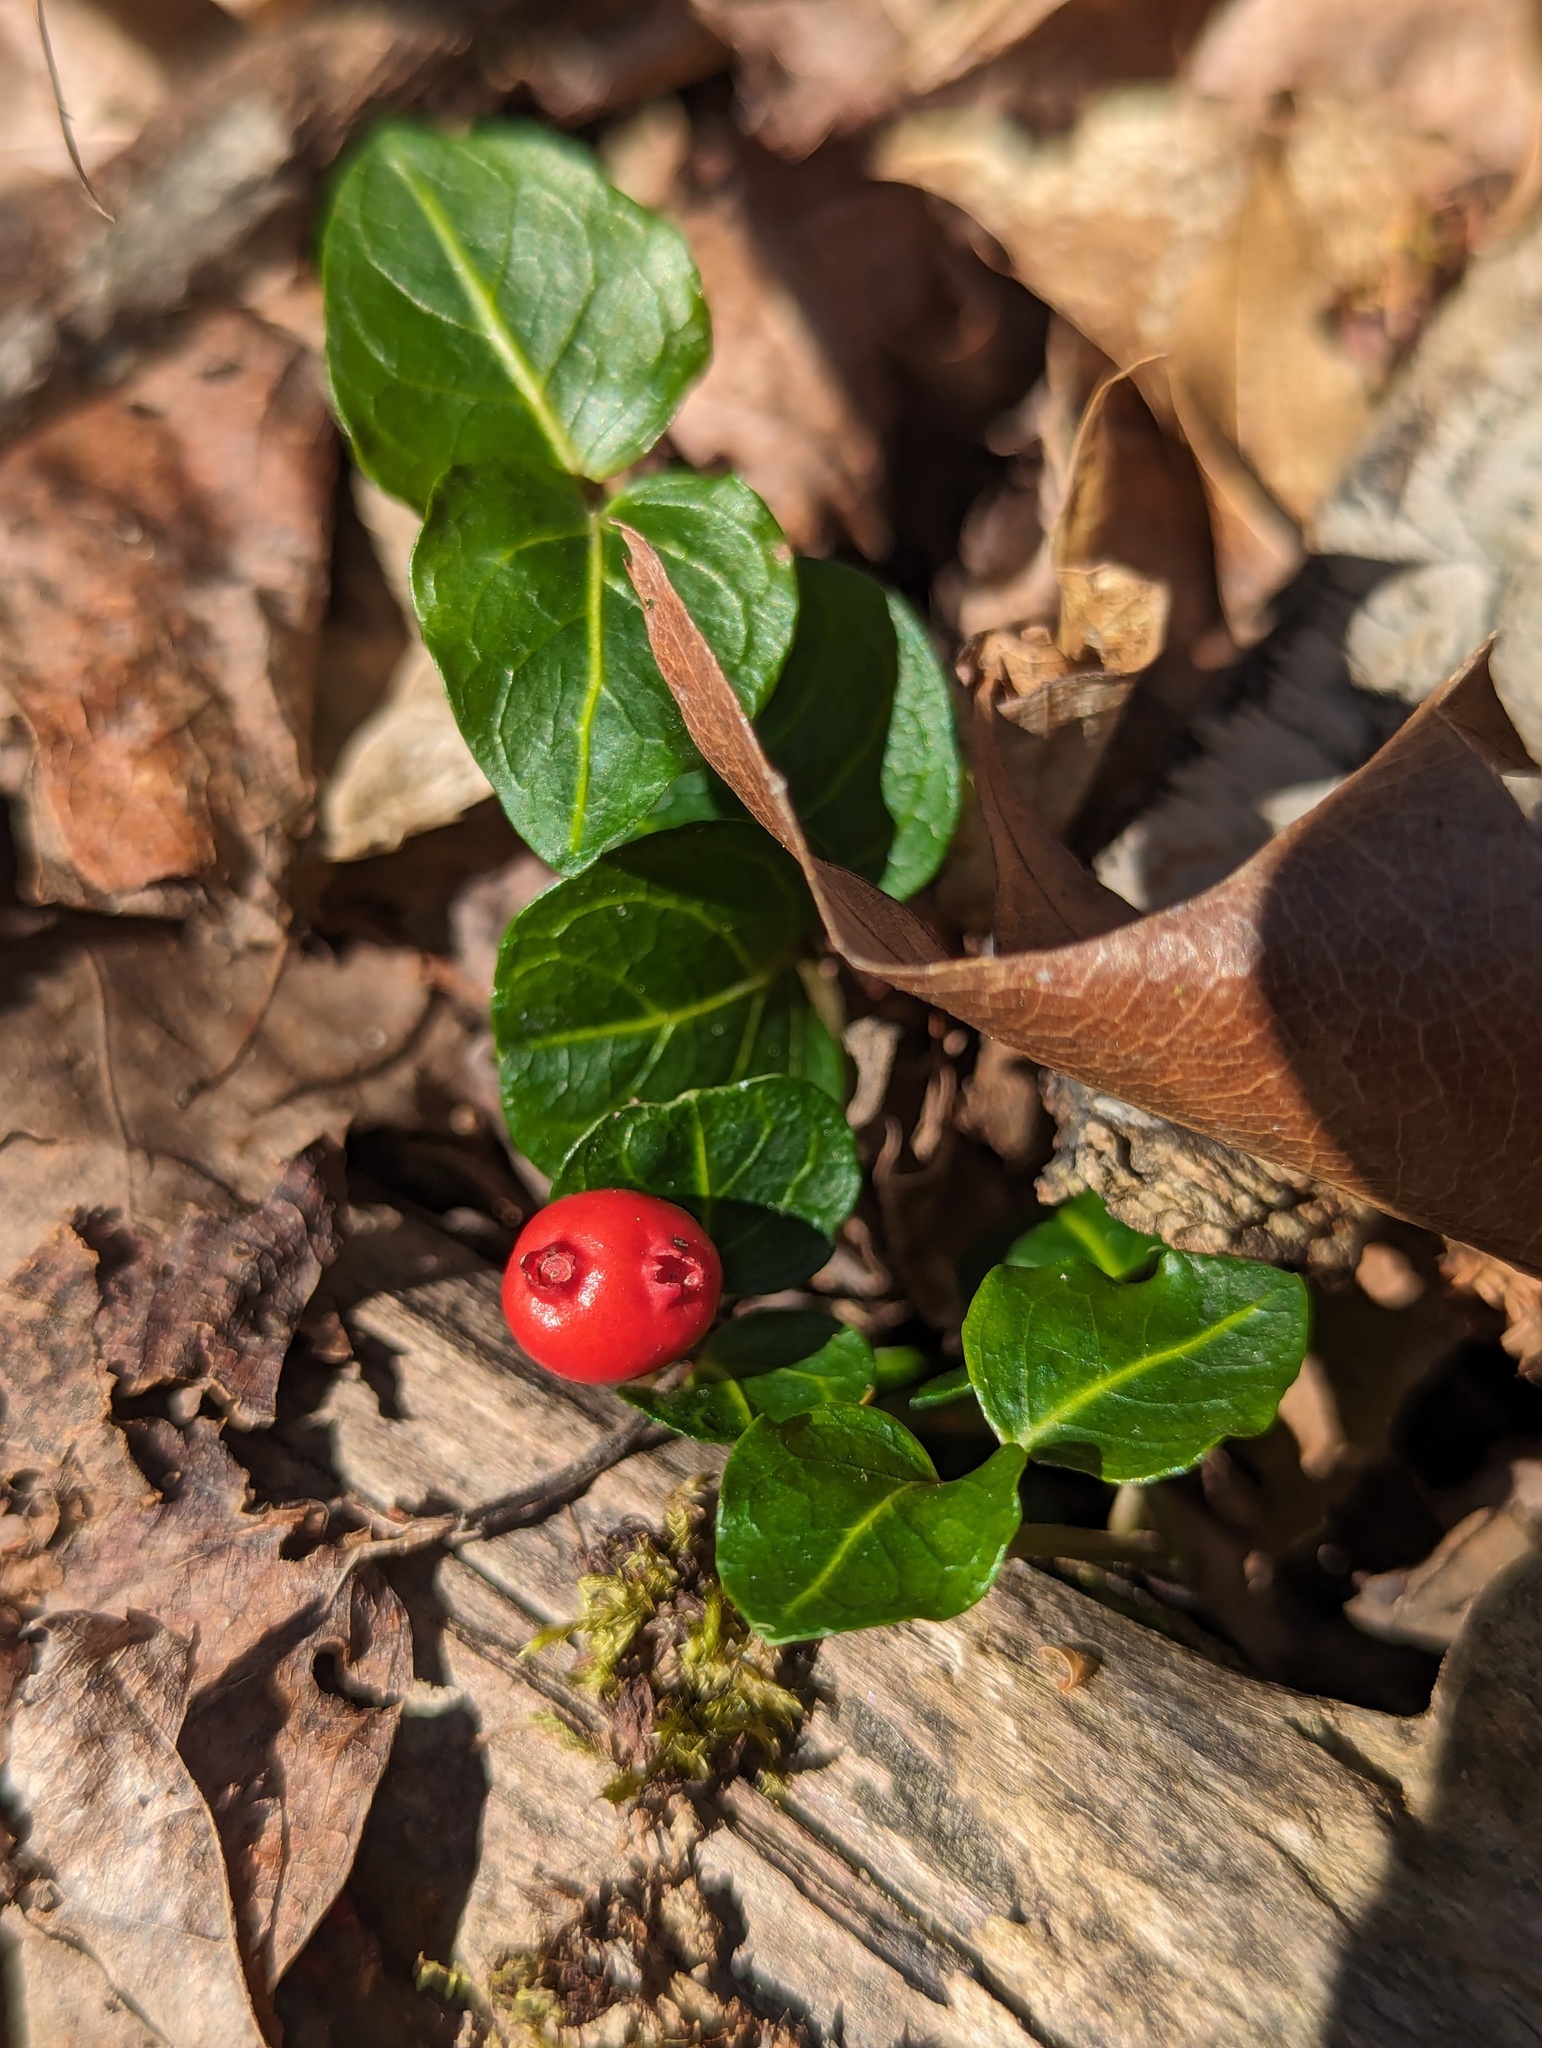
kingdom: Plantae
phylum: Tracheophyta
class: Magnoliopsida
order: Gentianales
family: Rubiaceae
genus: Mitchella
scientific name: Mitchella repens
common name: Partridge-berry
